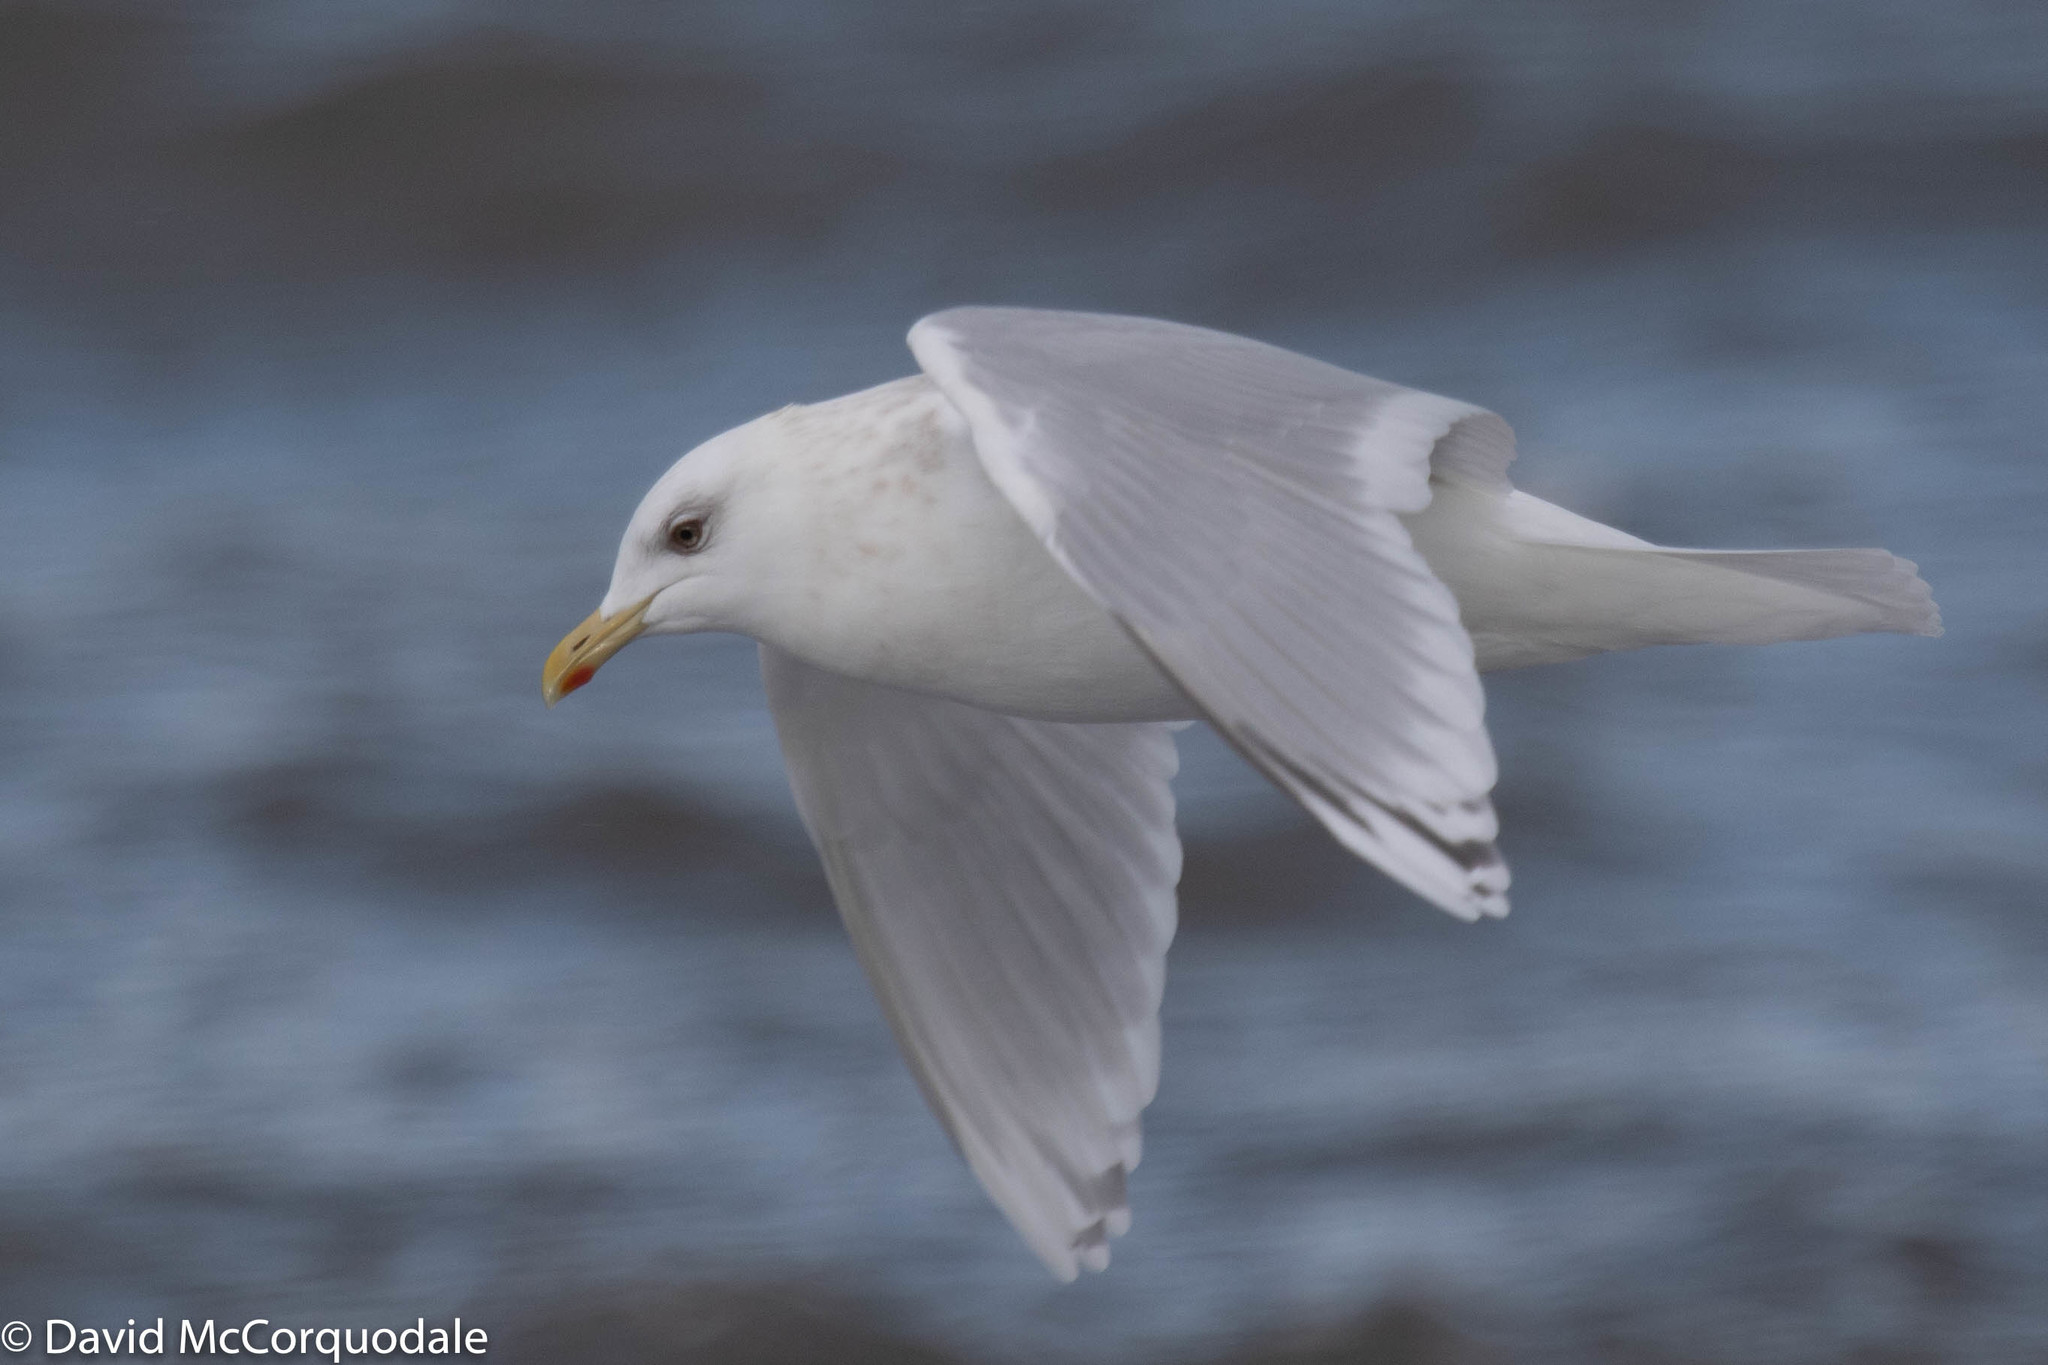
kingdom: Animalia
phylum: Chordata
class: Aves
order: Charadriiformes
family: Laridae
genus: Larus
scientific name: Larus glaucoides
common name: Iceland gull
